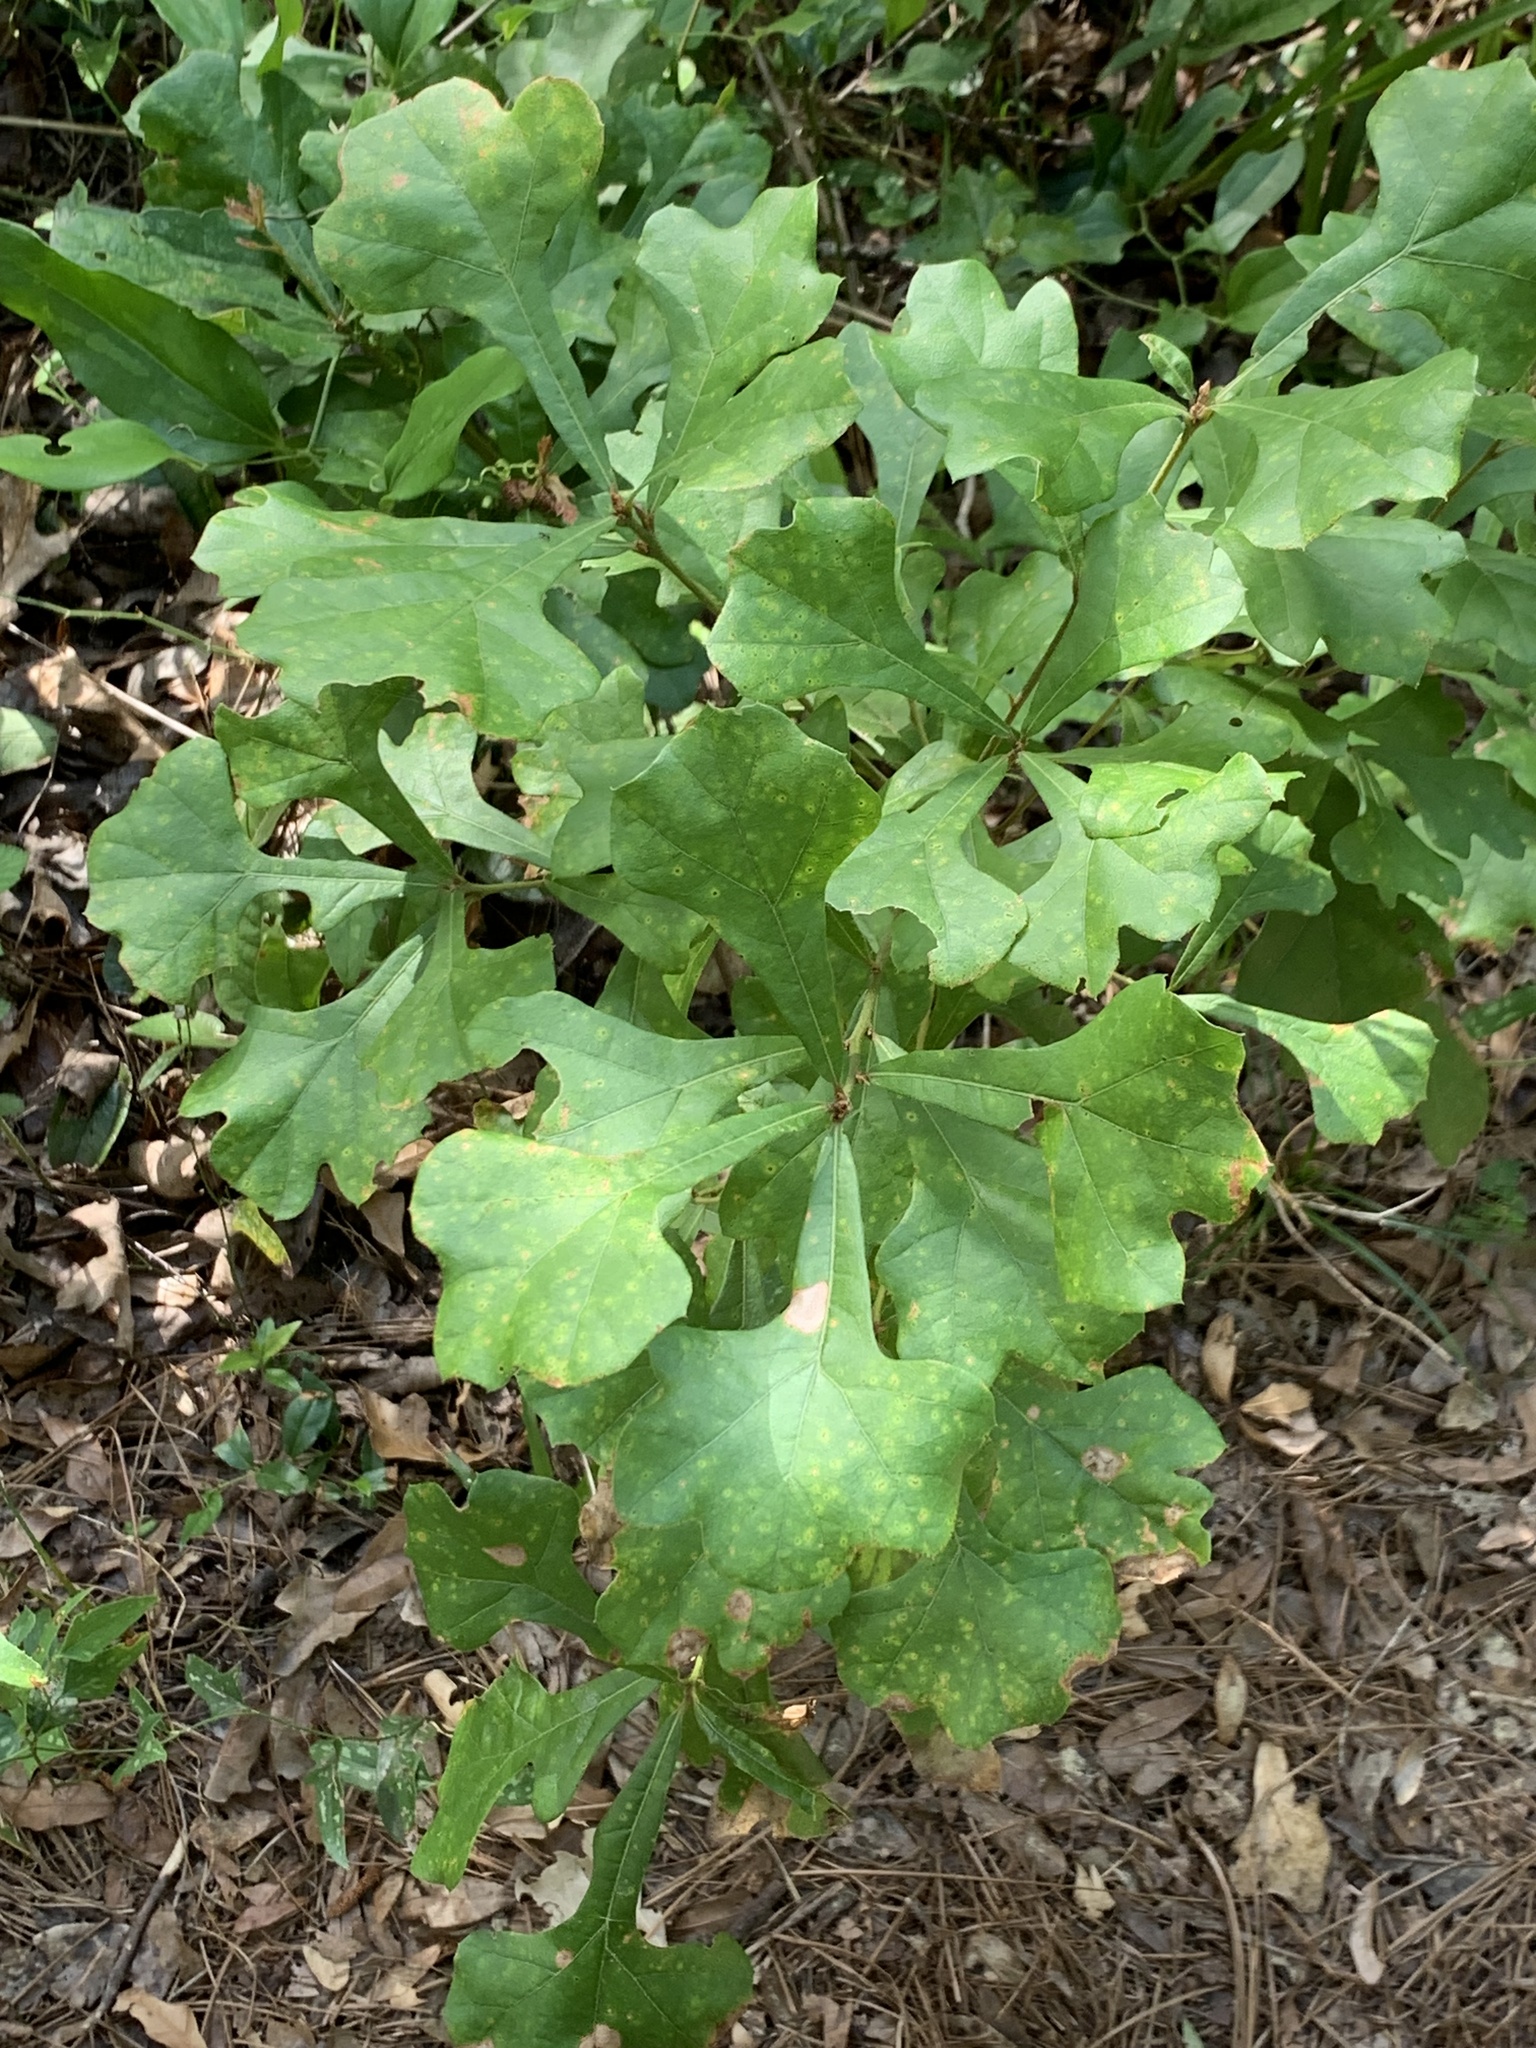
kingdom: Plantae
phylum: Tracheophyta
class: Magnoliopsida
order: Fagales
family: Fagaceae
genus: Quercus
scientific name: Quercus nigra
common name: Water oak
